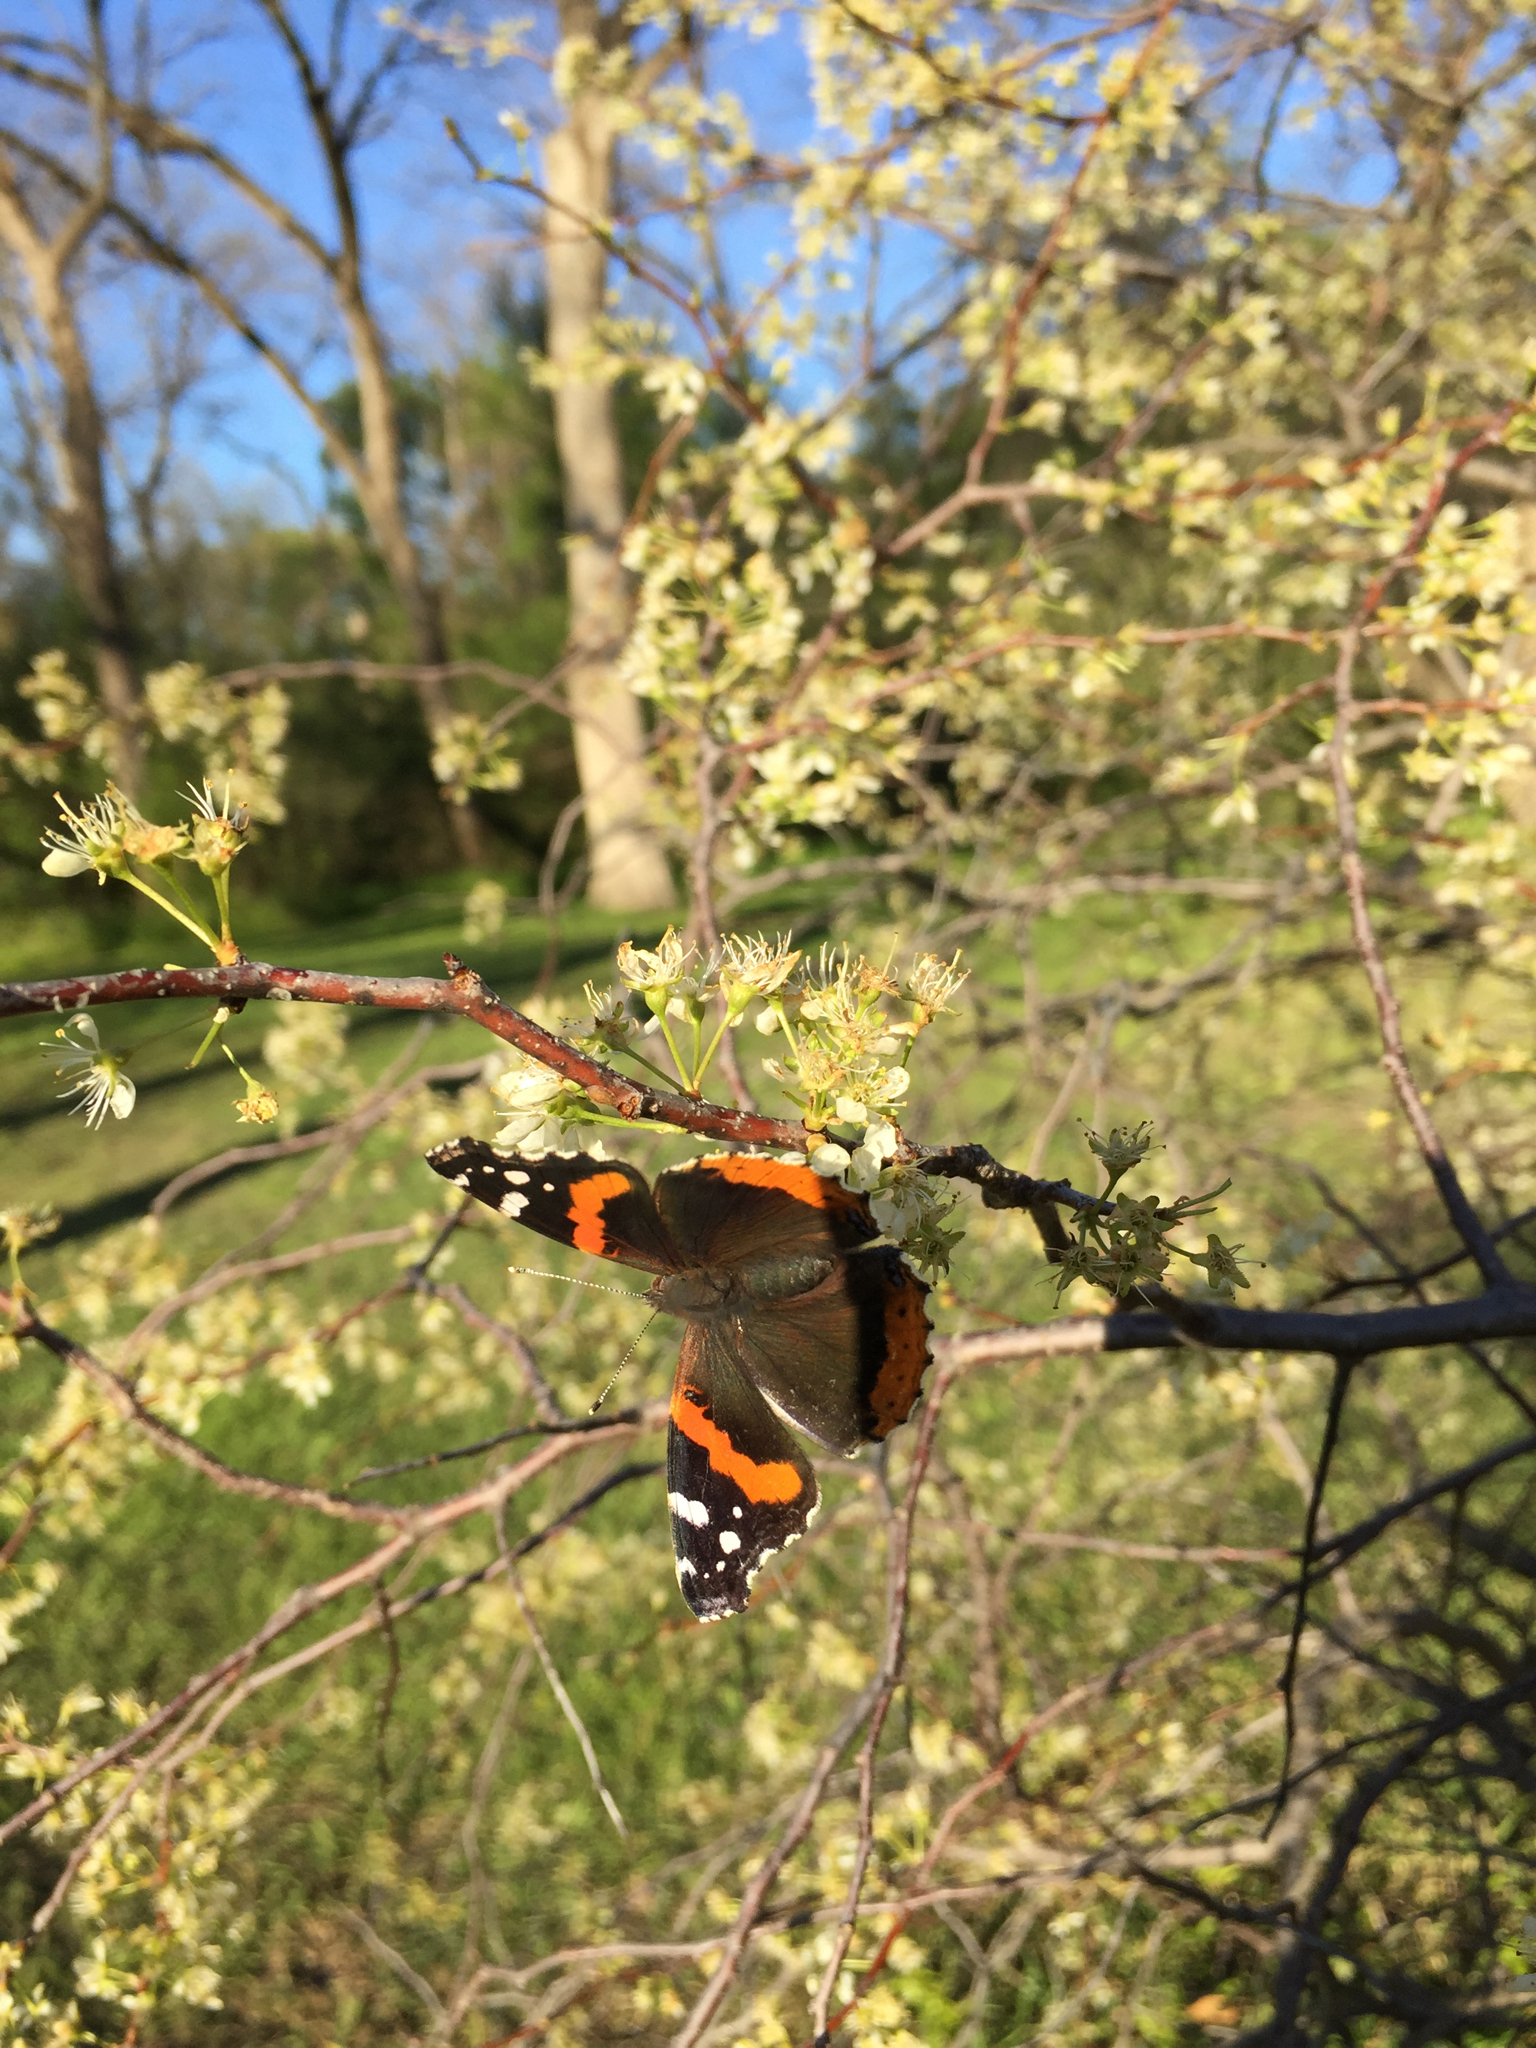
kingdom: Animalia
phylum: Arthropoda
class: Insecta
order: Lepidoptera
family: Nymphalidae
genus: Vanessa
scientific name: Vanessa atalanta
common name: Red admiral
